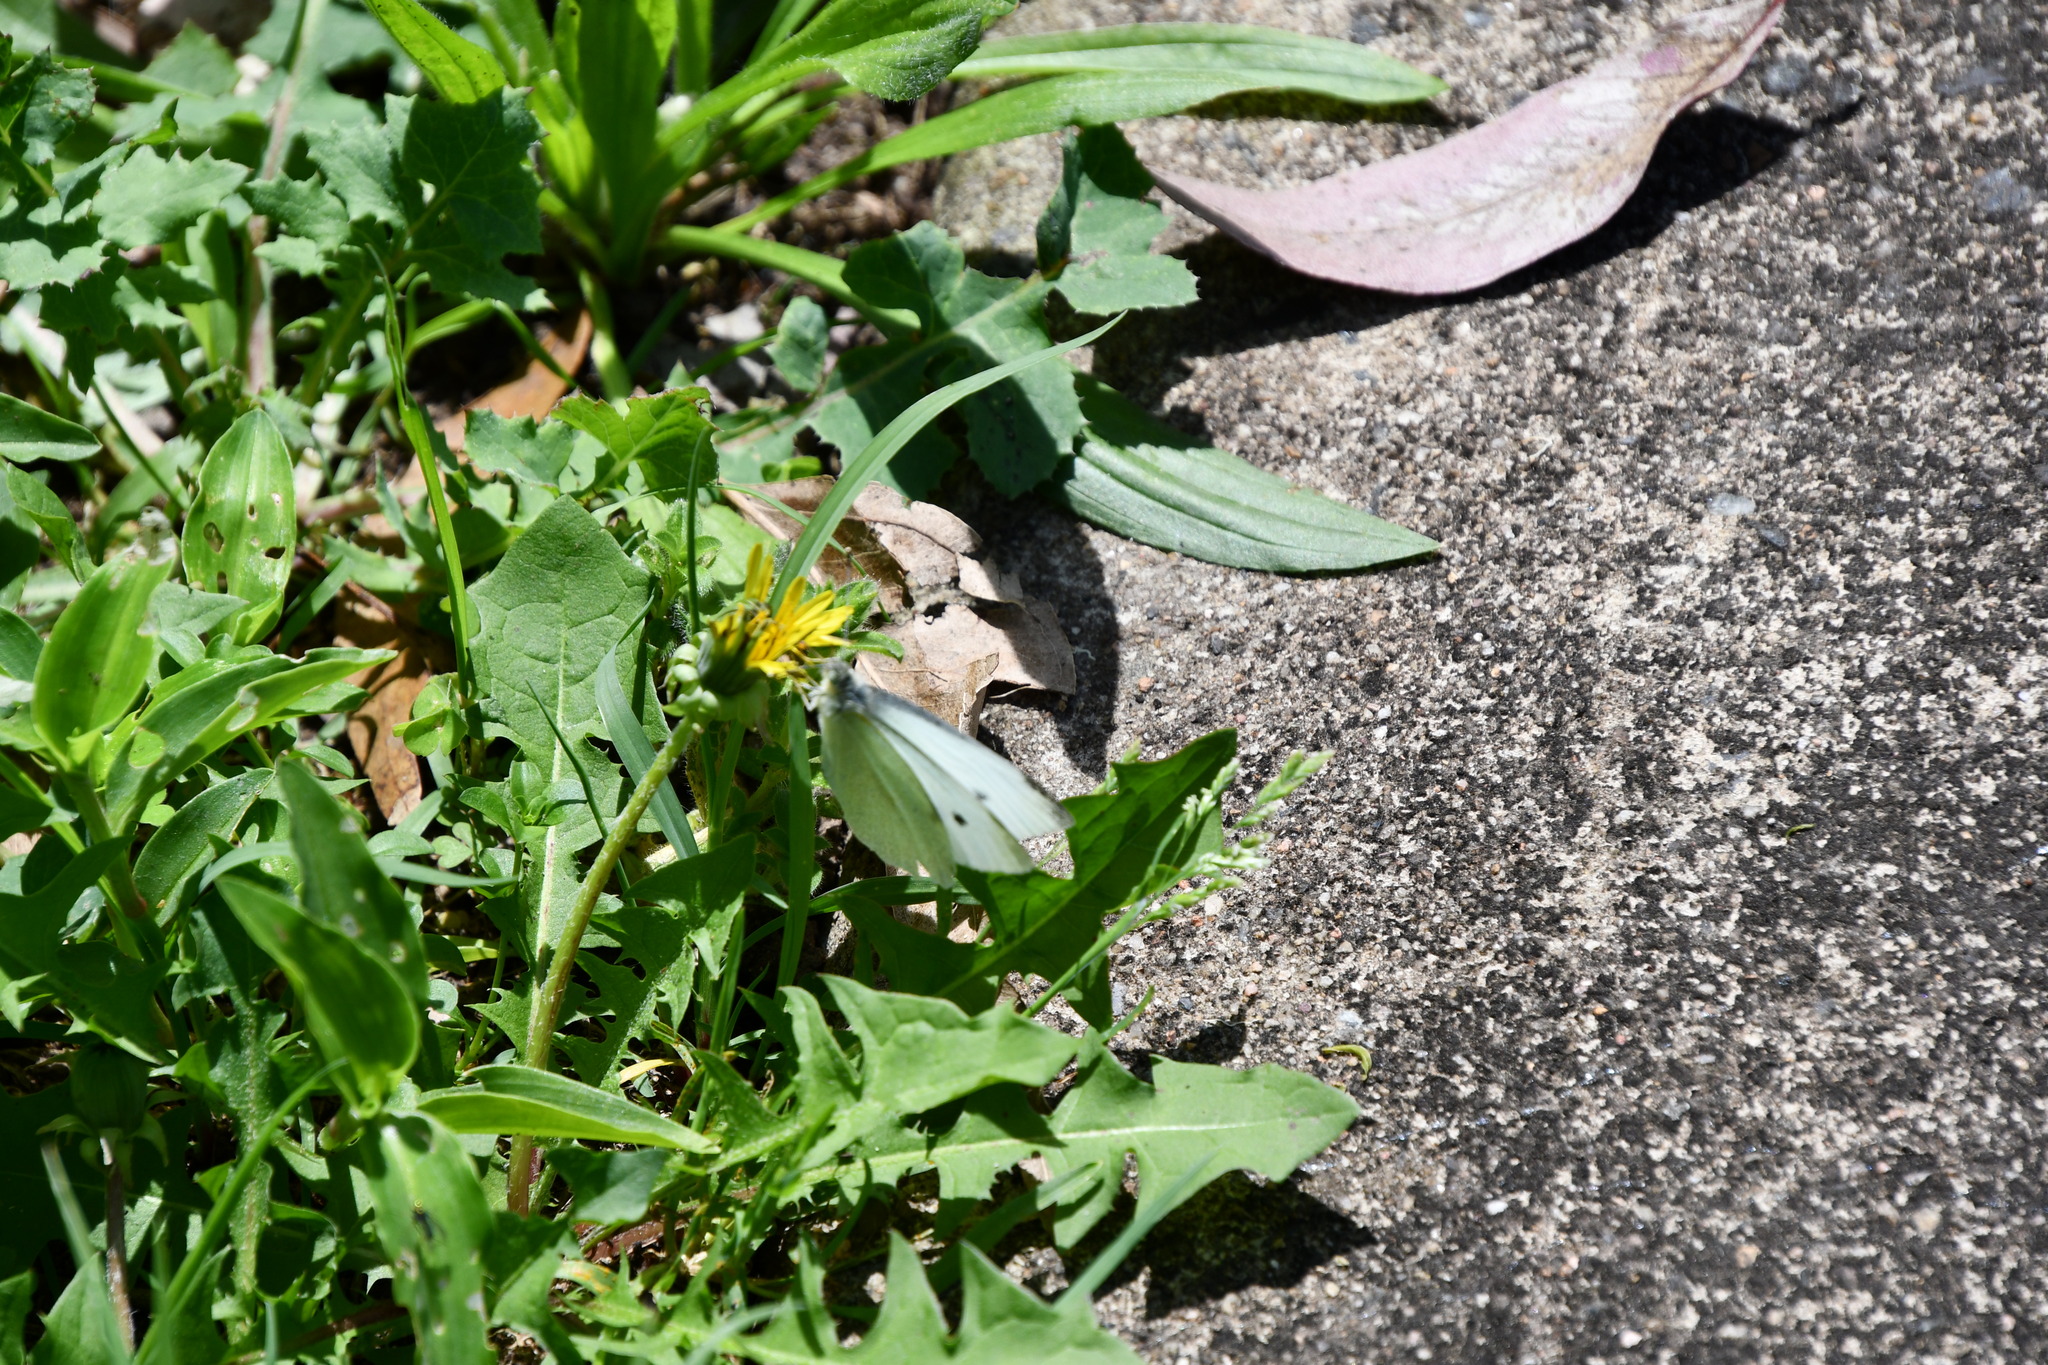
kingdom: Animalia
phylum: Arthropoda
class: Insecta
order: Lepidoptera
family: Pieridae
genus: Pieris
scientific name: Pieris rapae
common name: Small white
